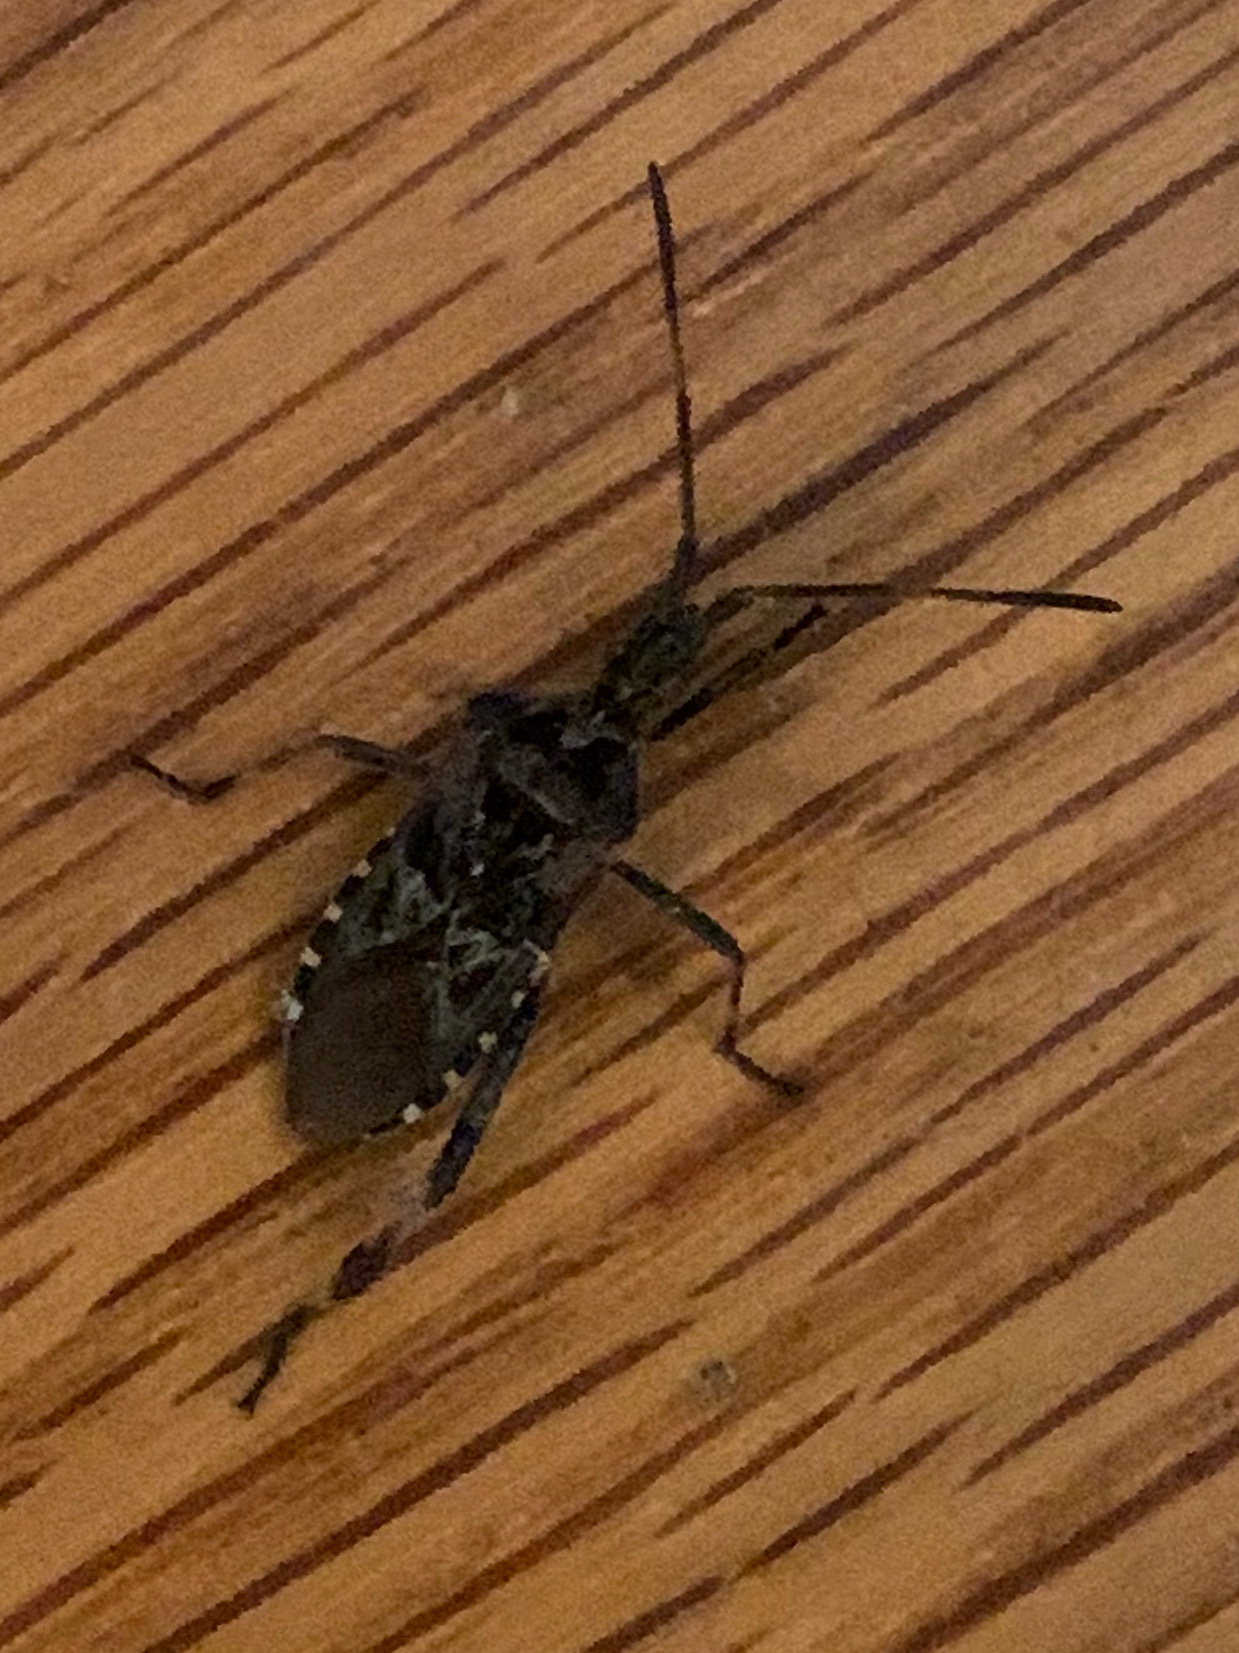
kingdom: Animalia
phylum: Arthropoda
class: Insecta
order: Hemiptera
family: Coreidae
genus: Leptoglossus
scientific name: Leptoglossus occidentalis
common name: Western conifer-seed bug
